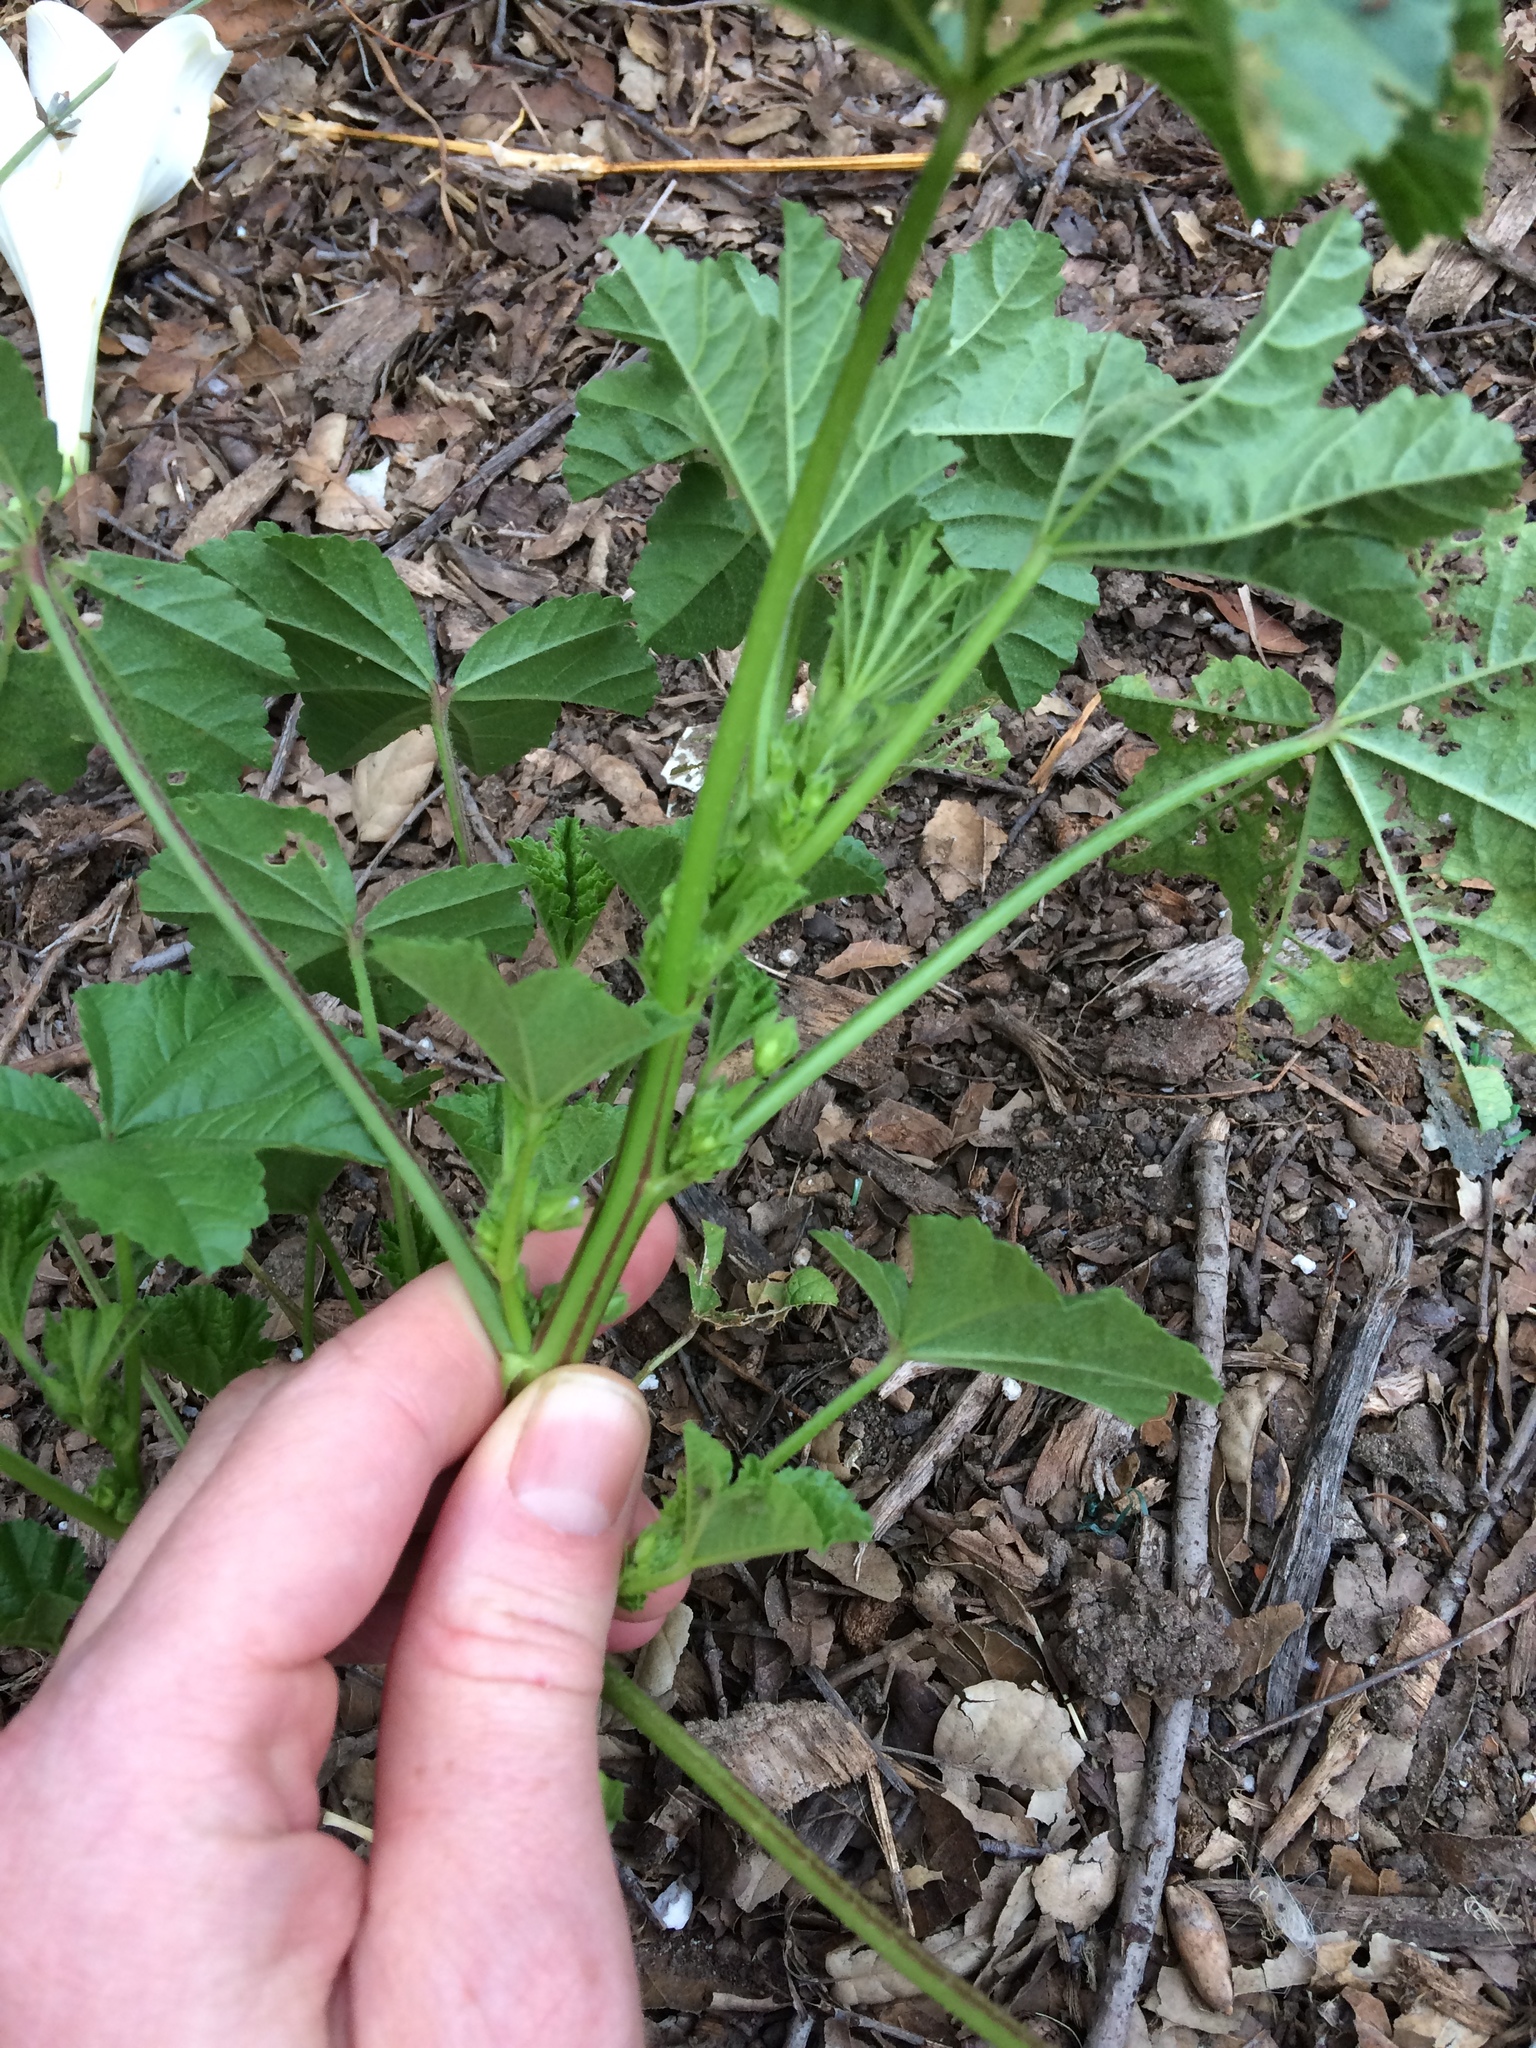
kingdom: Plantae
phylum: Tracheophyta
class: Magnoliopsida
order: Malvales
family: Malvaceae
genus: Malva
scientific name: Malva parviflora
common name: Least mallow
